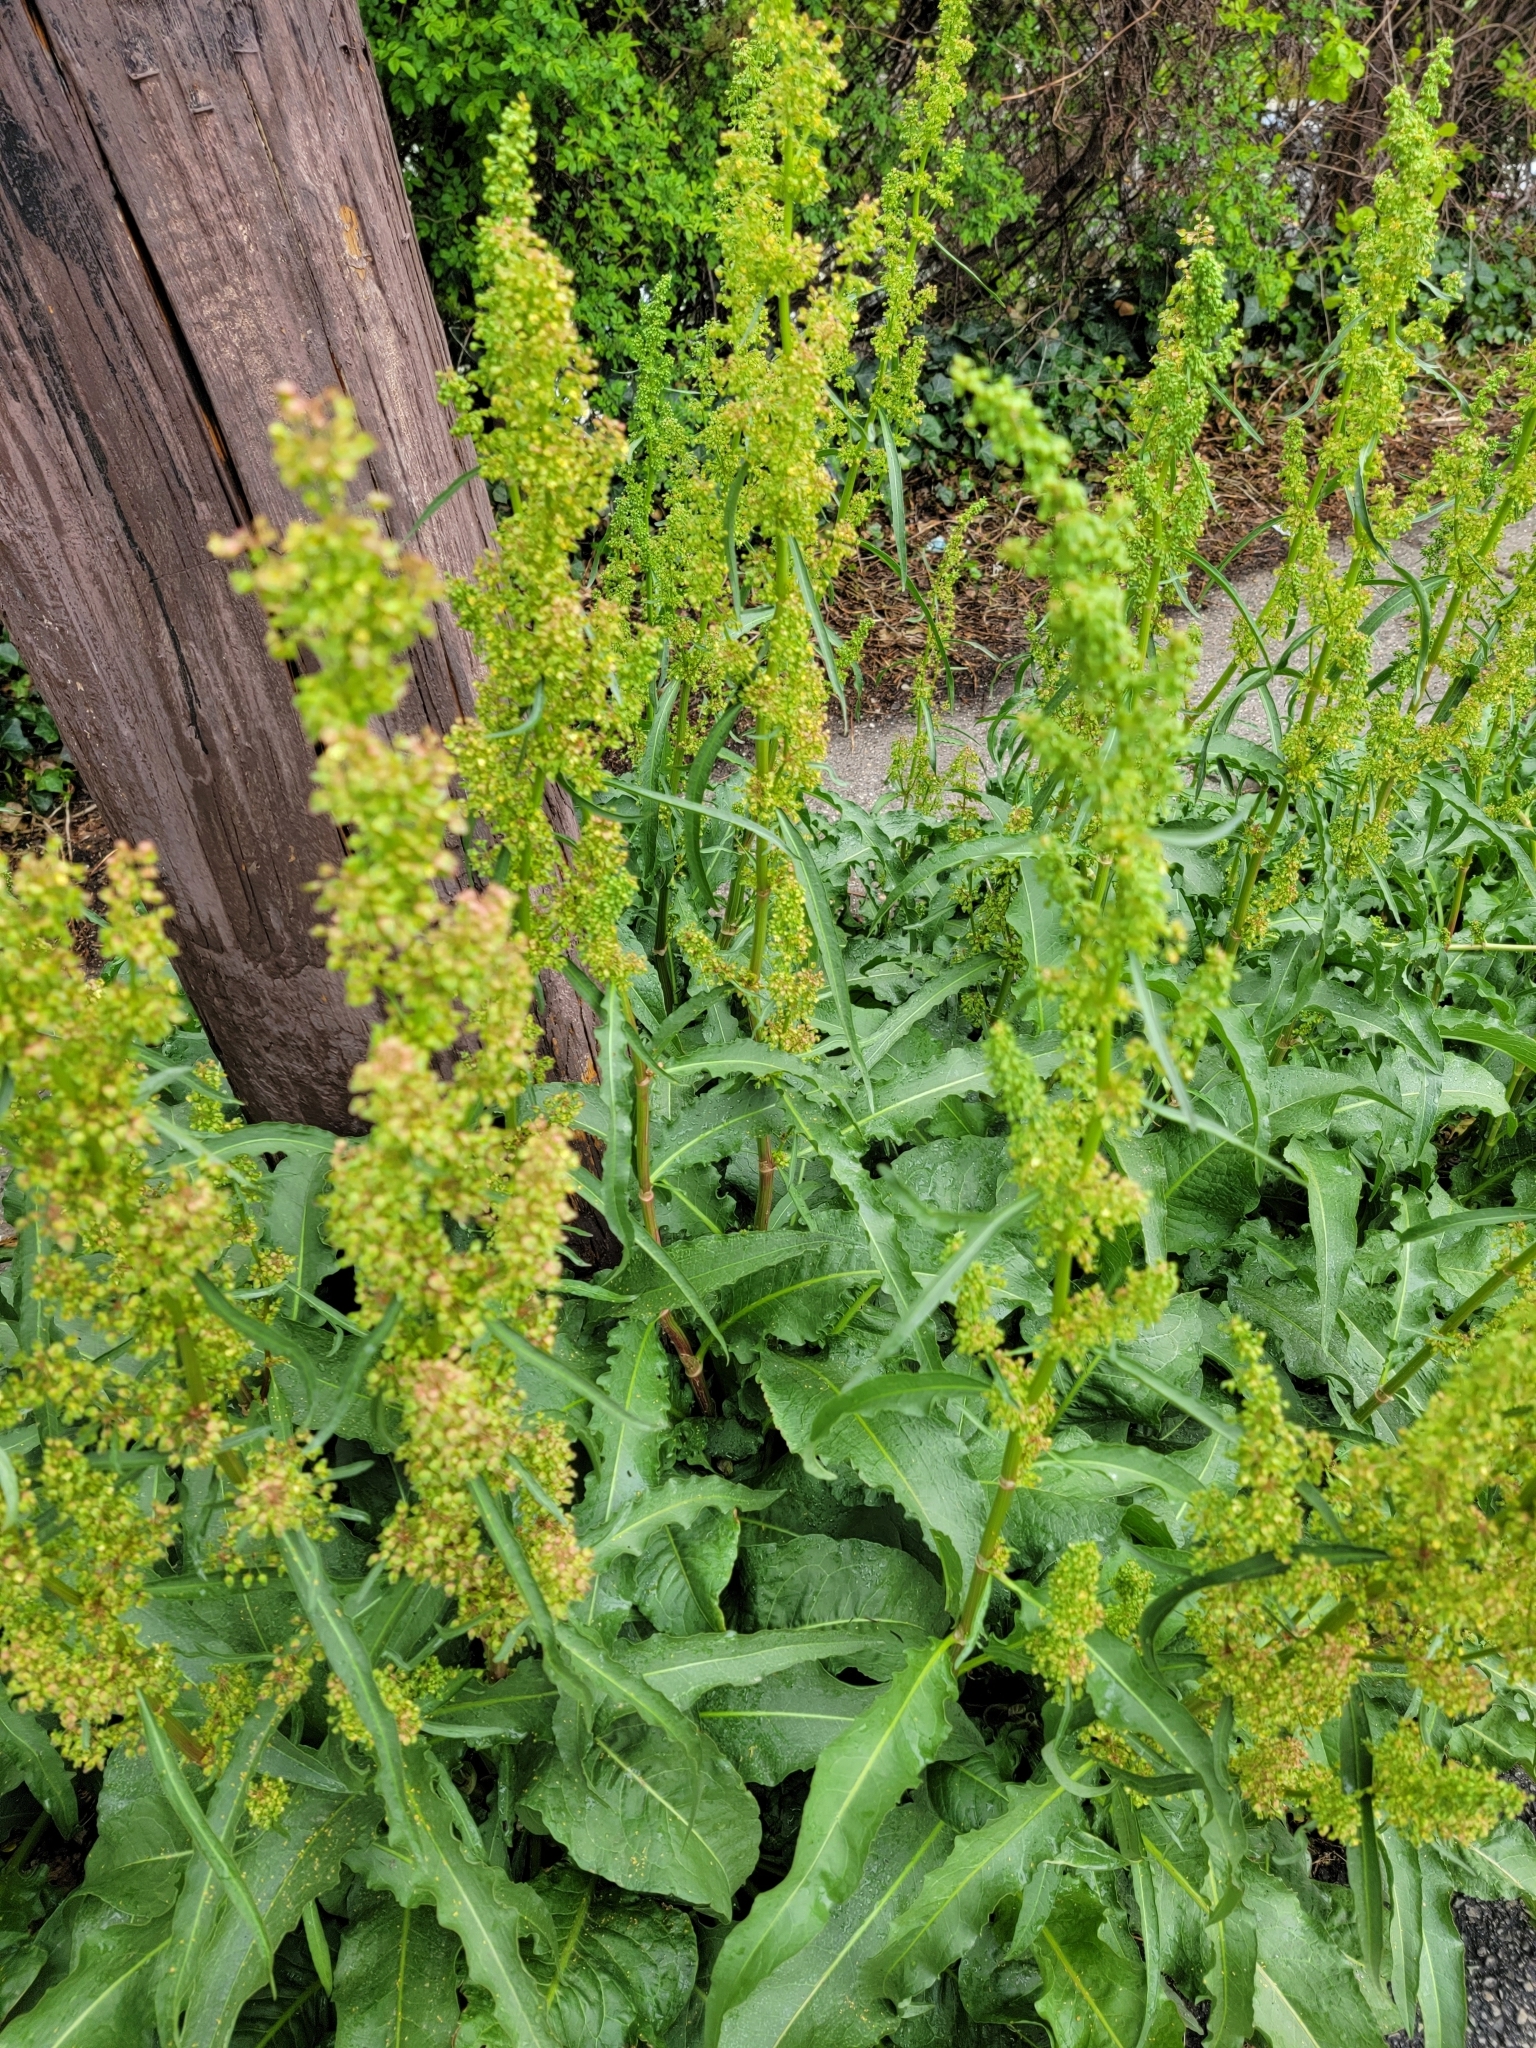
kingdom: Plantae
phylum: Tracheophyta
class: Magnoliopsida
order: Caryophyllales
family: Polygonaceae
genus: Rumex
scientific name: Rumex crispus
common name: Curled dock
